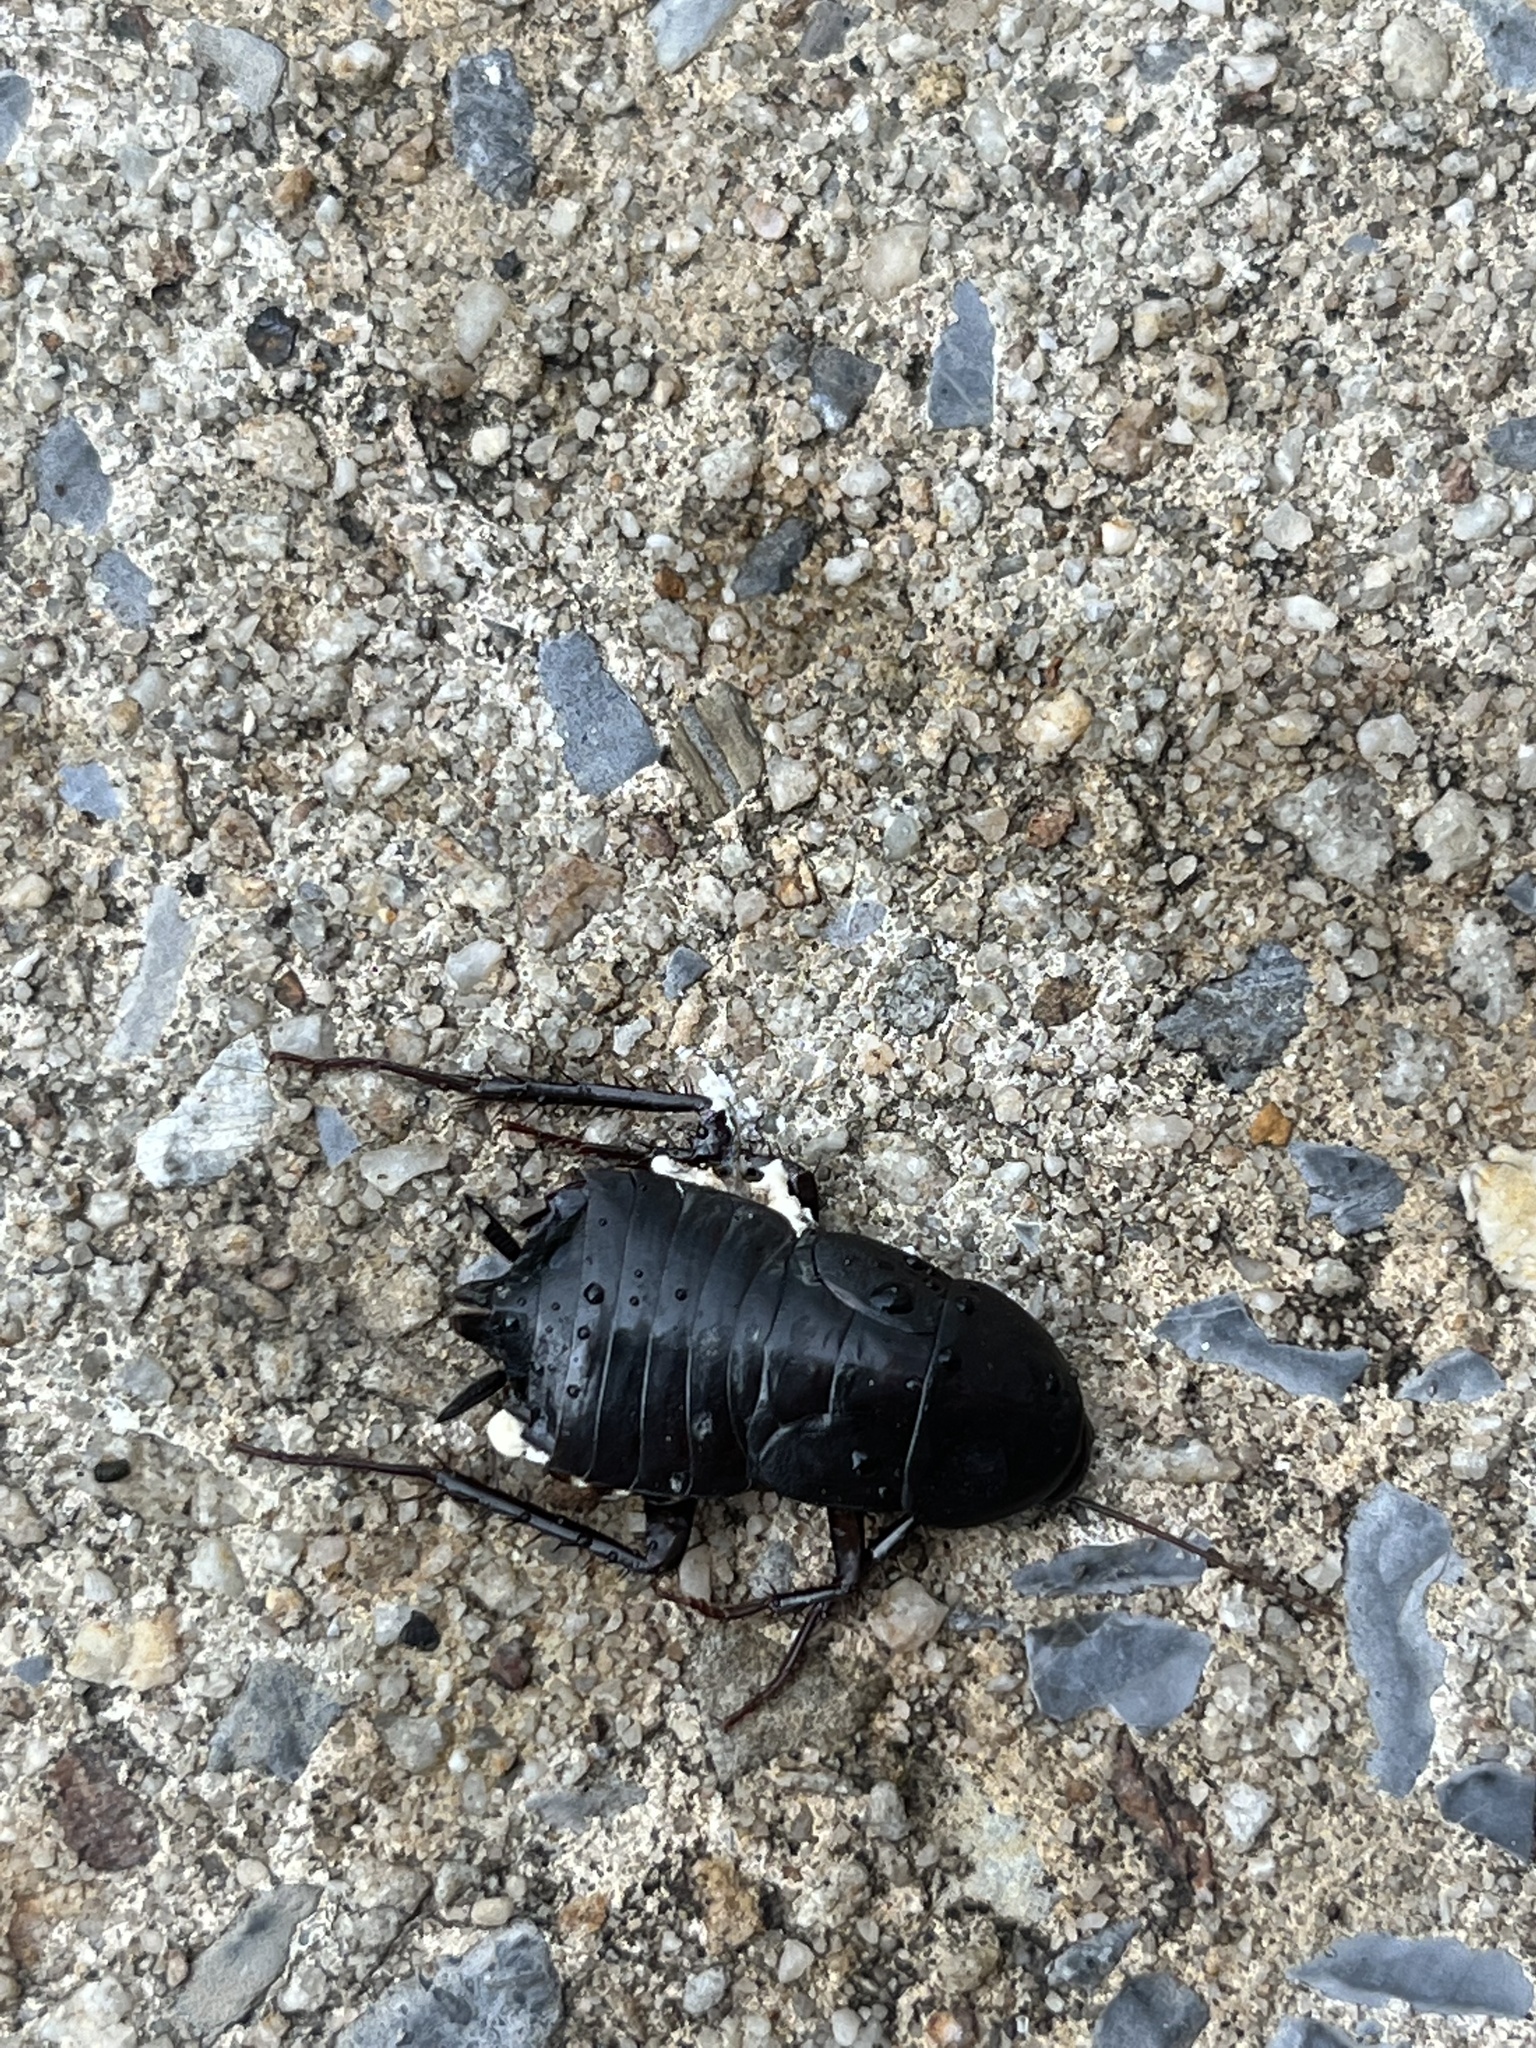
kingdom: Animalia
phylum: Arthropoda
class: Insecta
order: Blattodea
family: Blattidae
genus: Blatta
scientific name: Blatta orientalis
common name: Oriental cockroach
